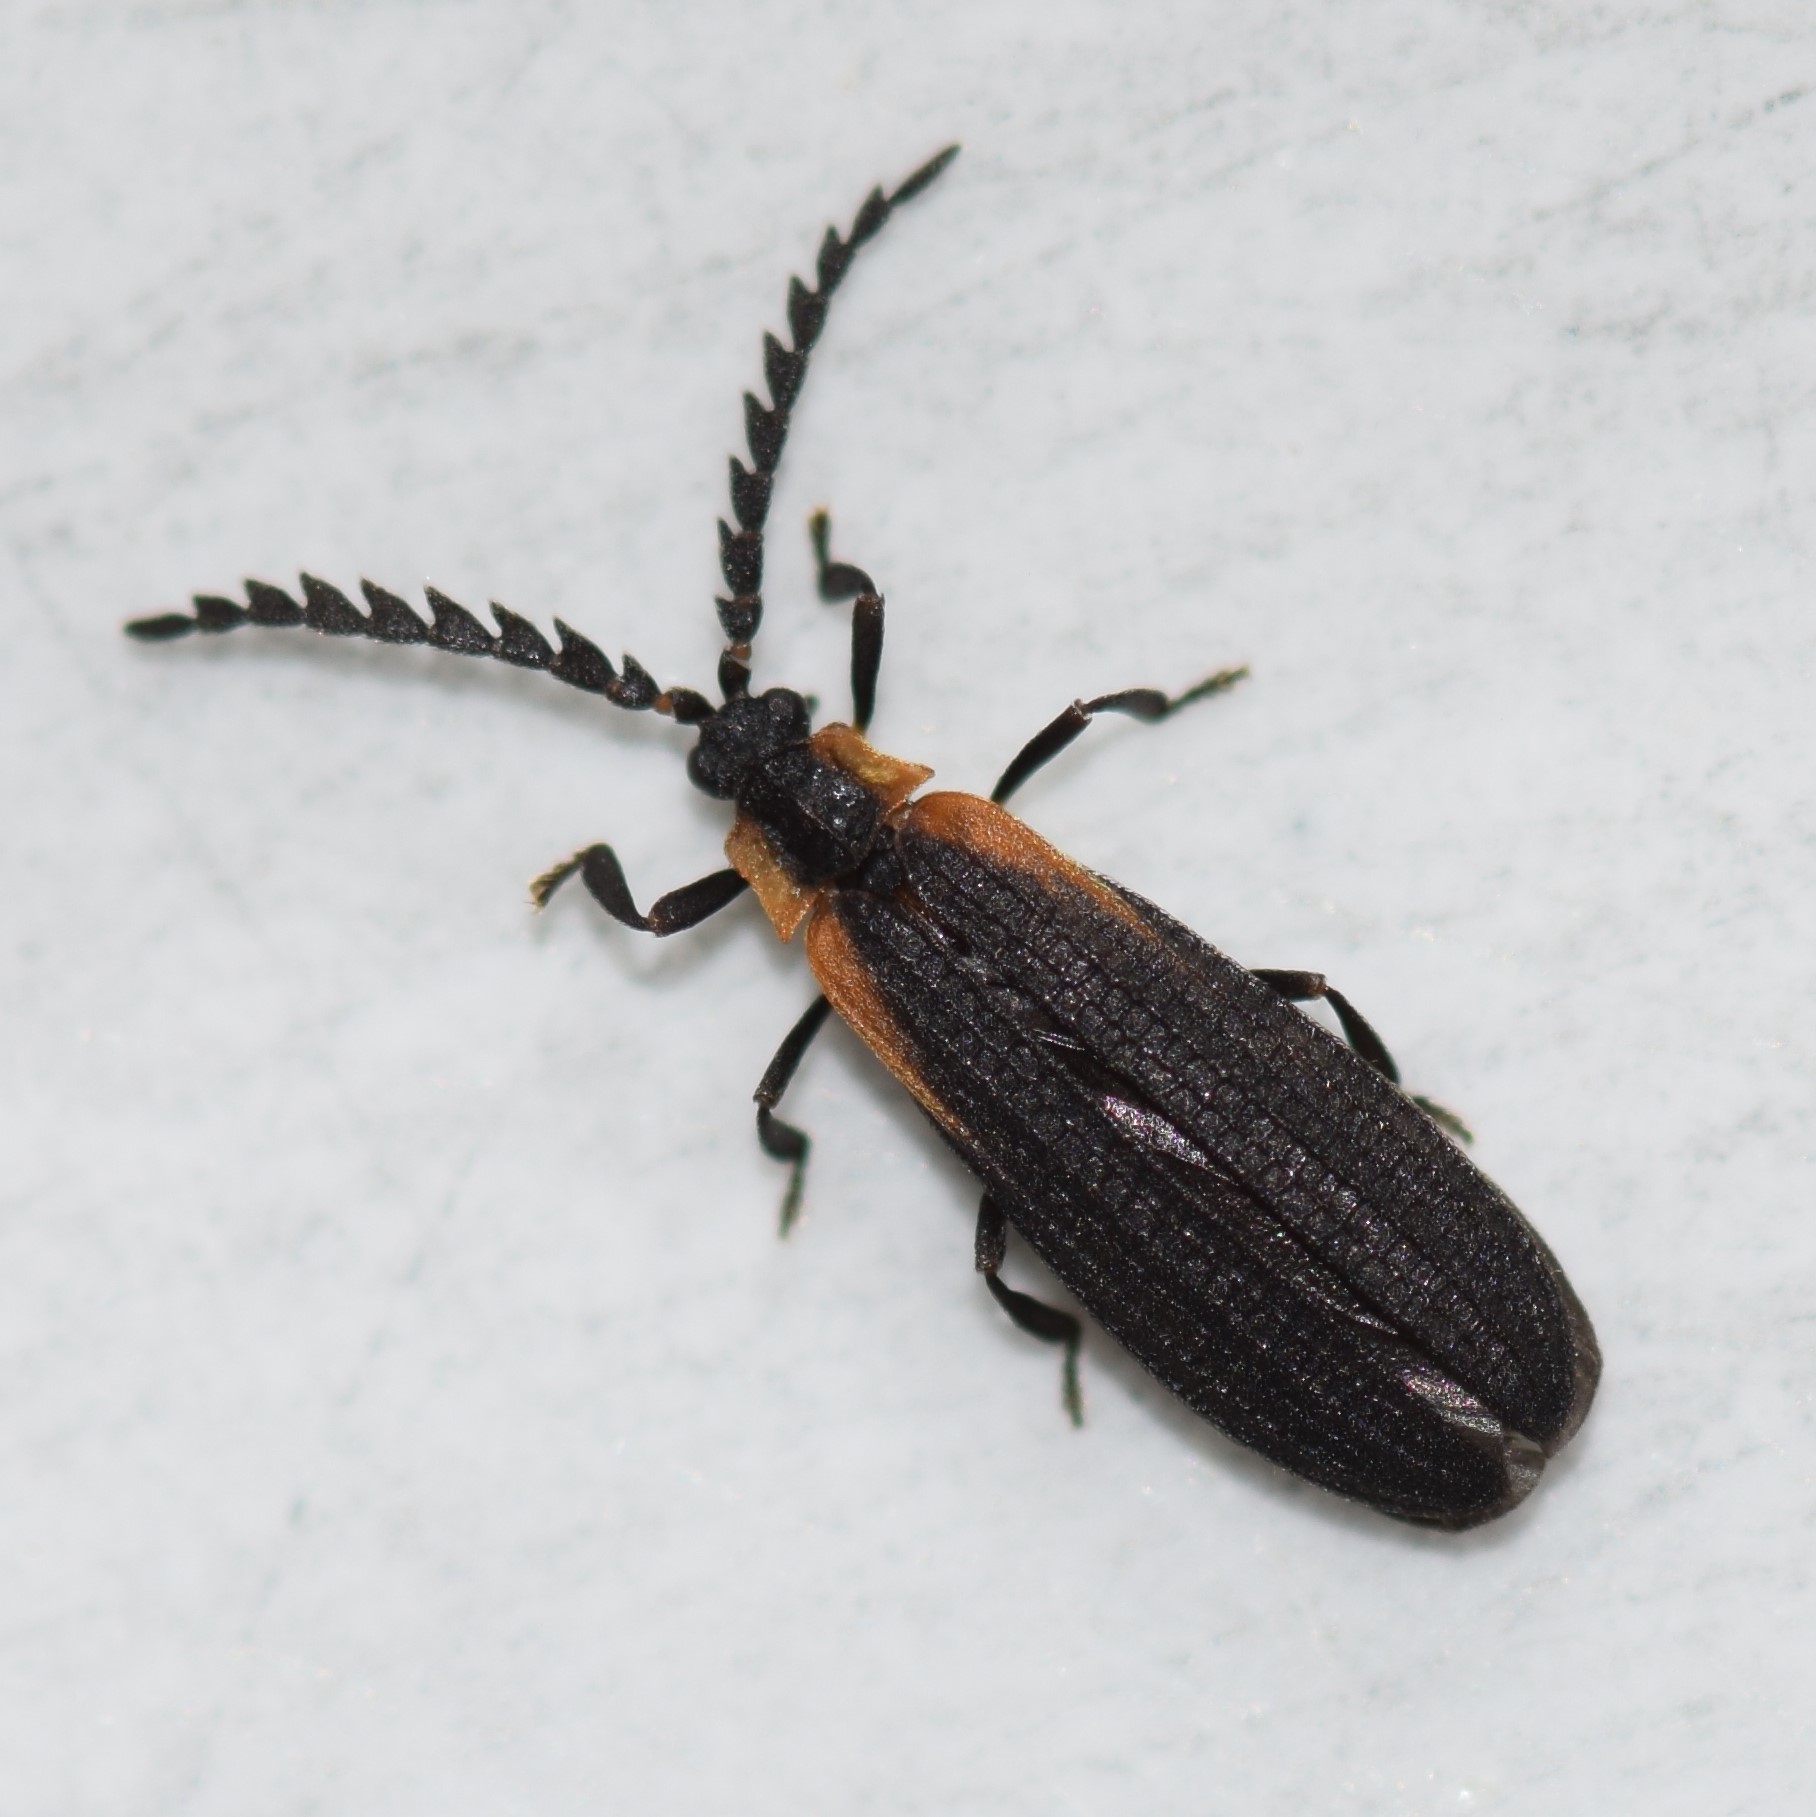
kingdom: Animalia
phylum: Arthropoda
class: Insecta
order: Coleoptera
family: Lycidae
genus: Leptoceletes
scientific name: Leptoceletes basalis
